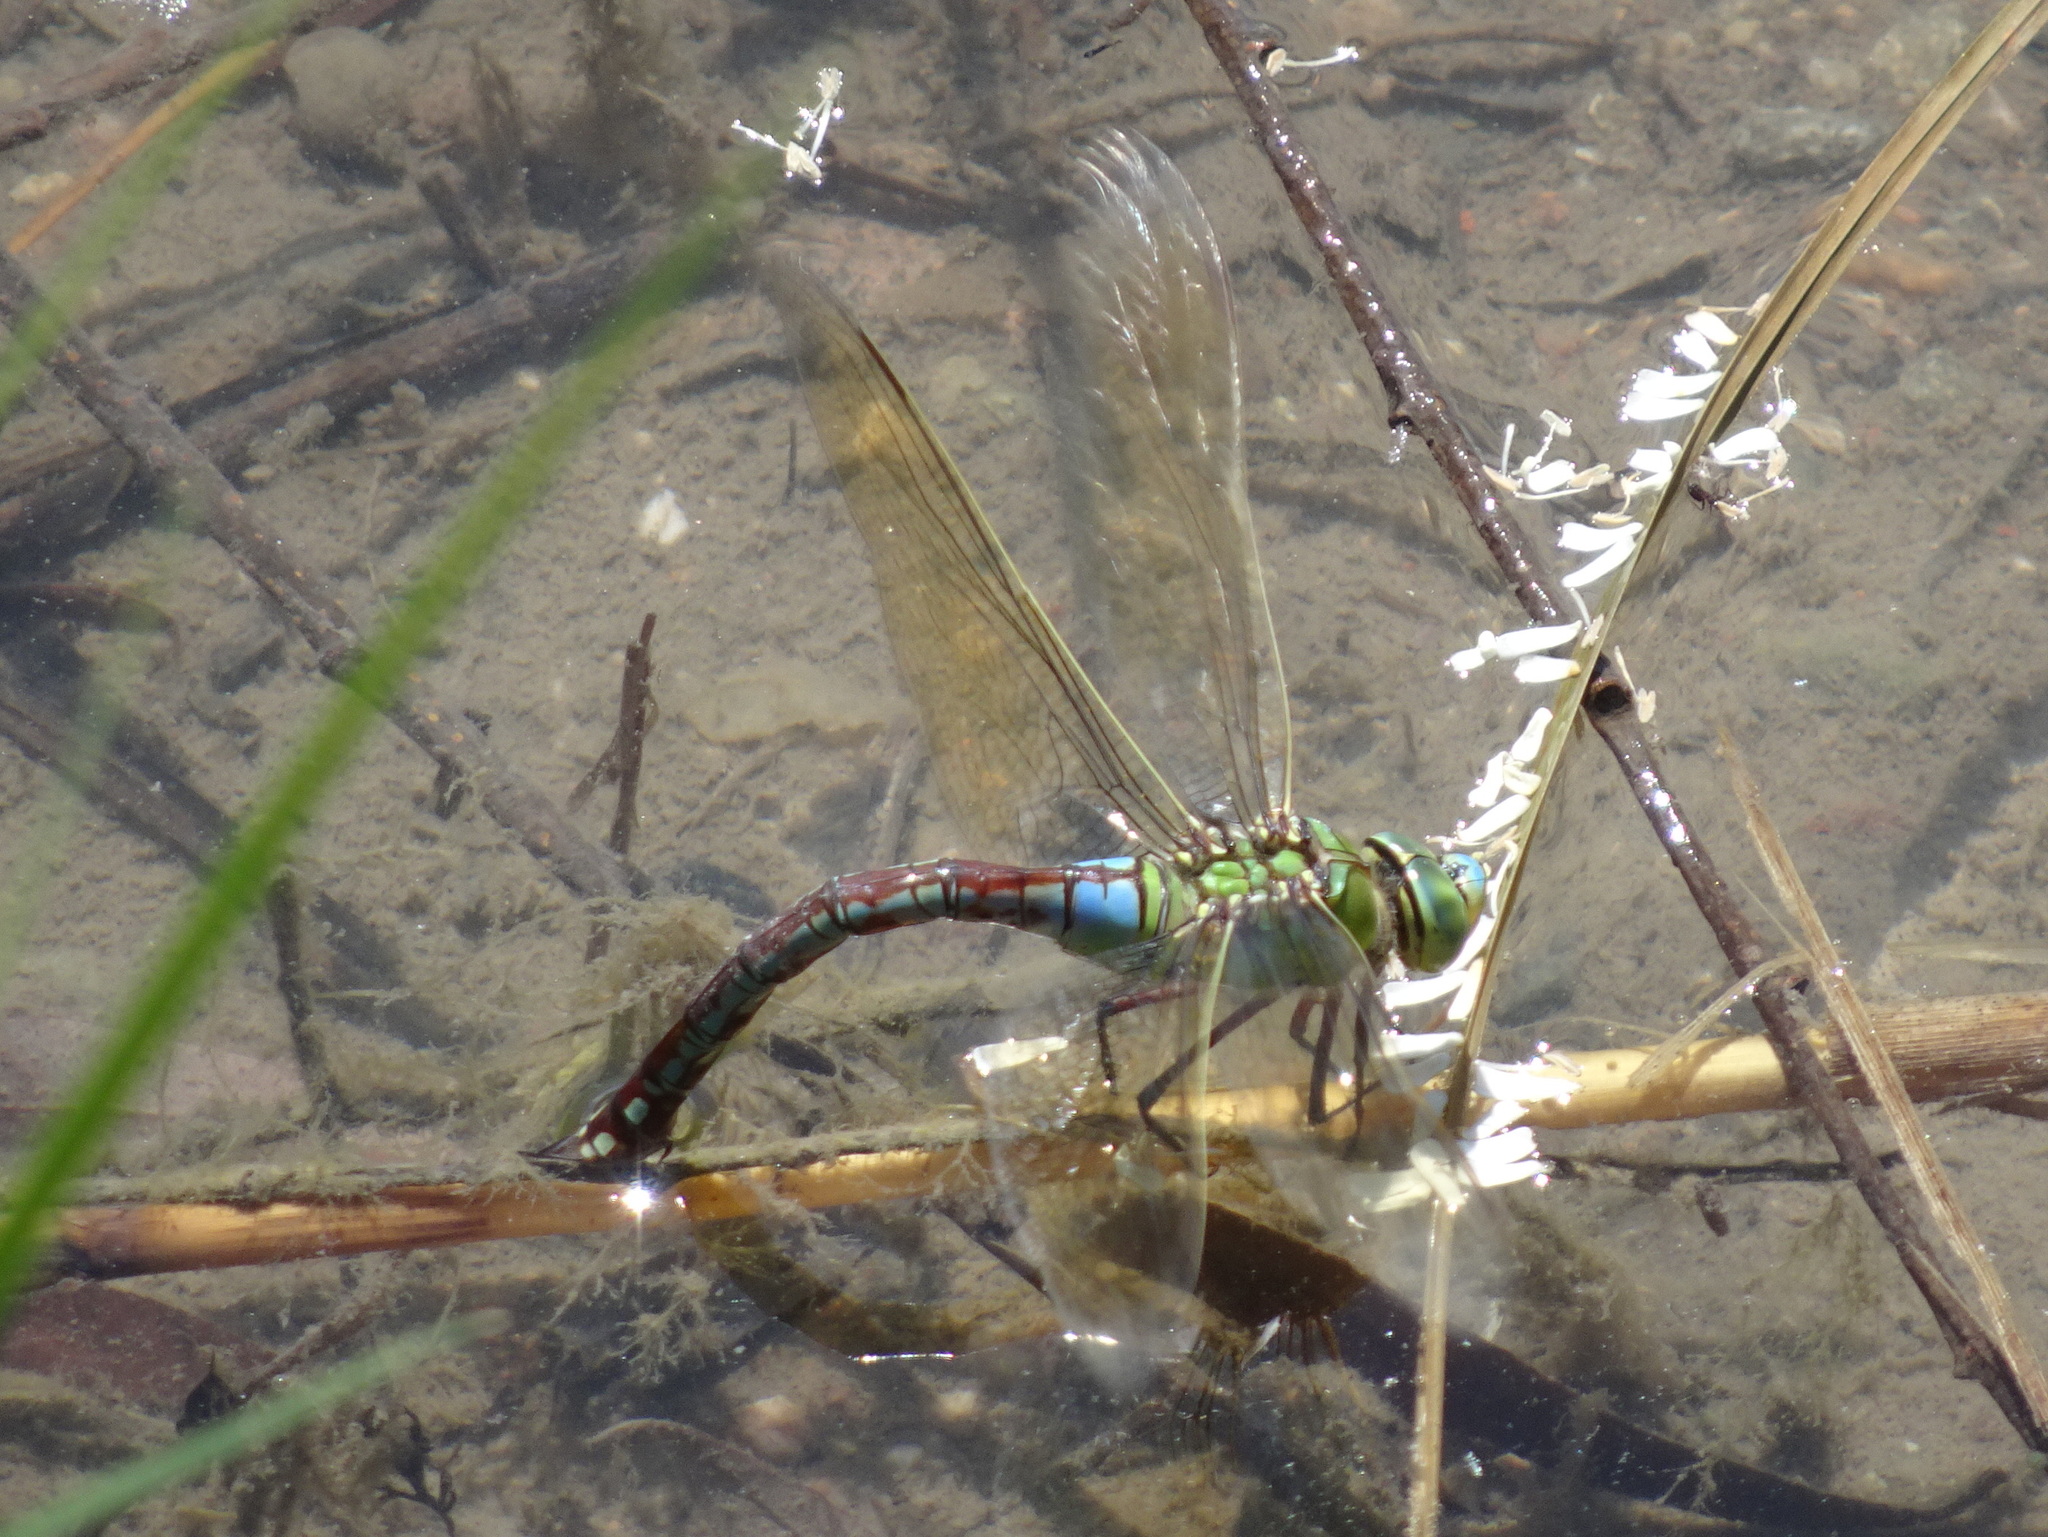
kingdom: Animalia
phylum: Arthropoda
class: Insecta
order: Odonata
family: Aeshnidae
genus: Anax
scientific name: Anax imperator
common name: Emperor dragonfly
